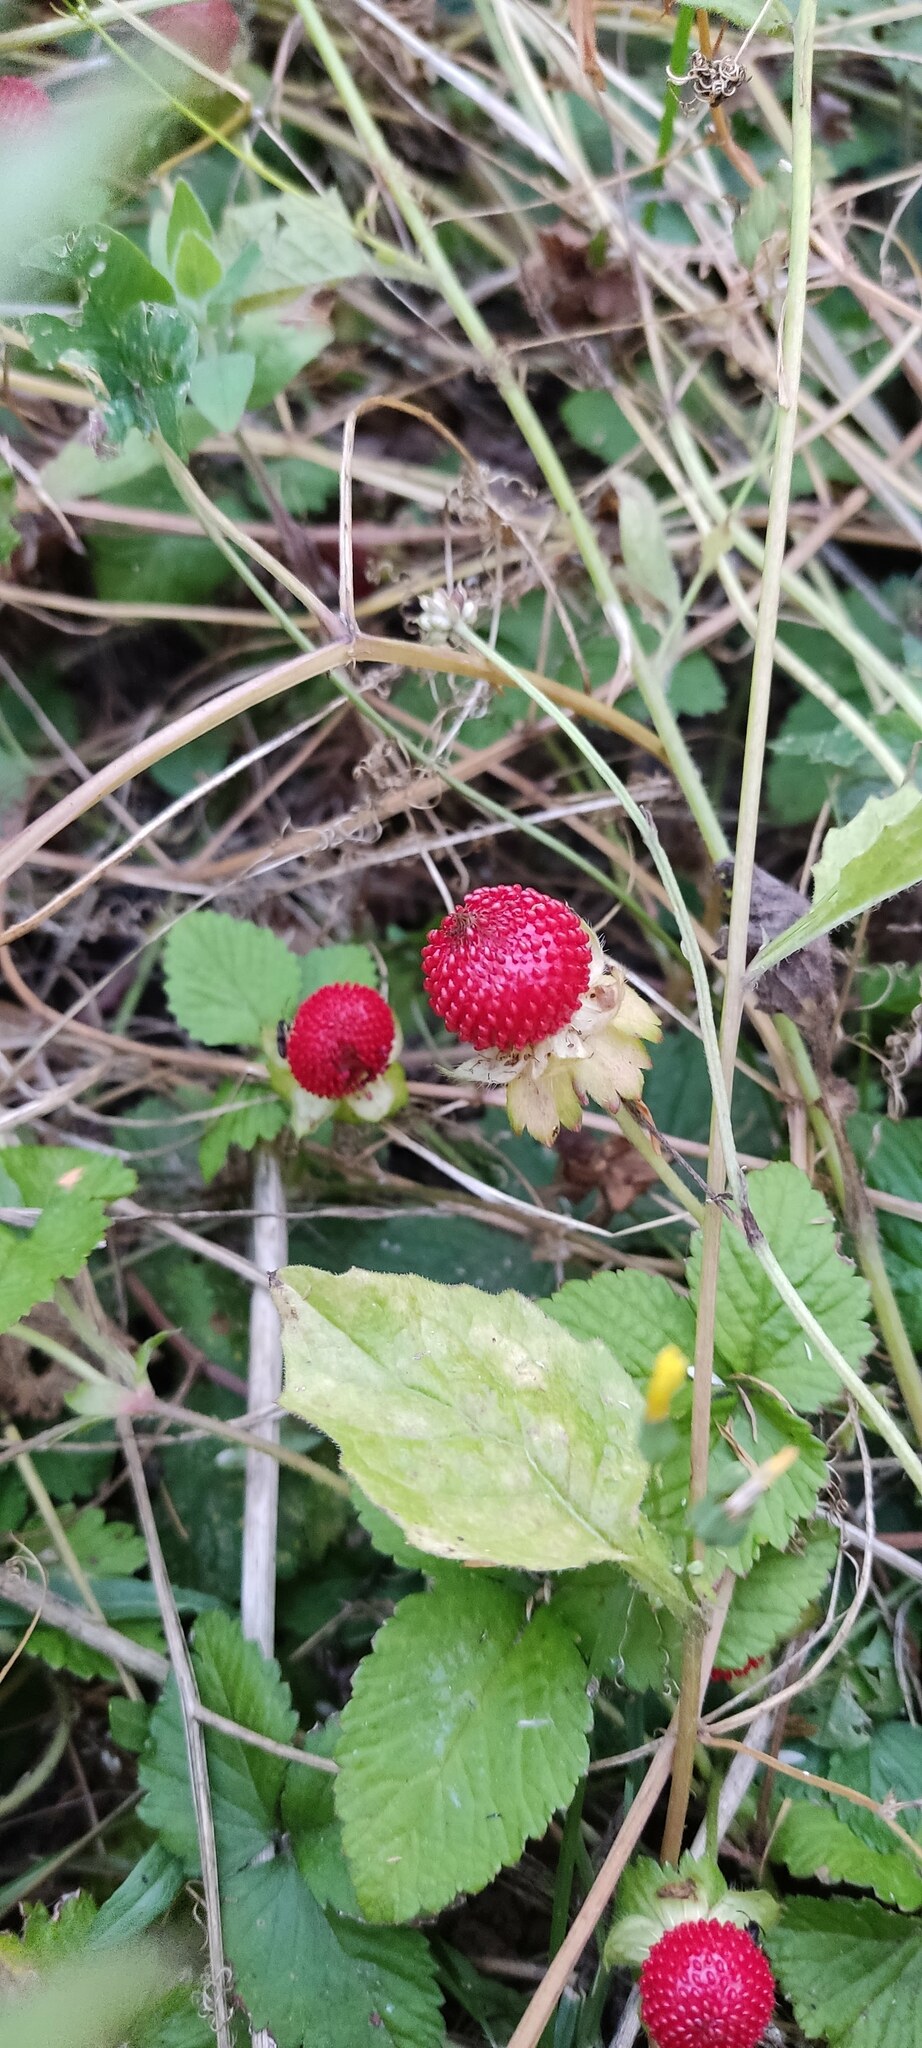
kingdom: Plantae
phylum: Tracheophyta
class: Magnoliopsida
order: Rosales
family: Rosaceae
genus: Potentilla
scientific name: Potentilla indica
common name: Yellow-flowered strawberry
